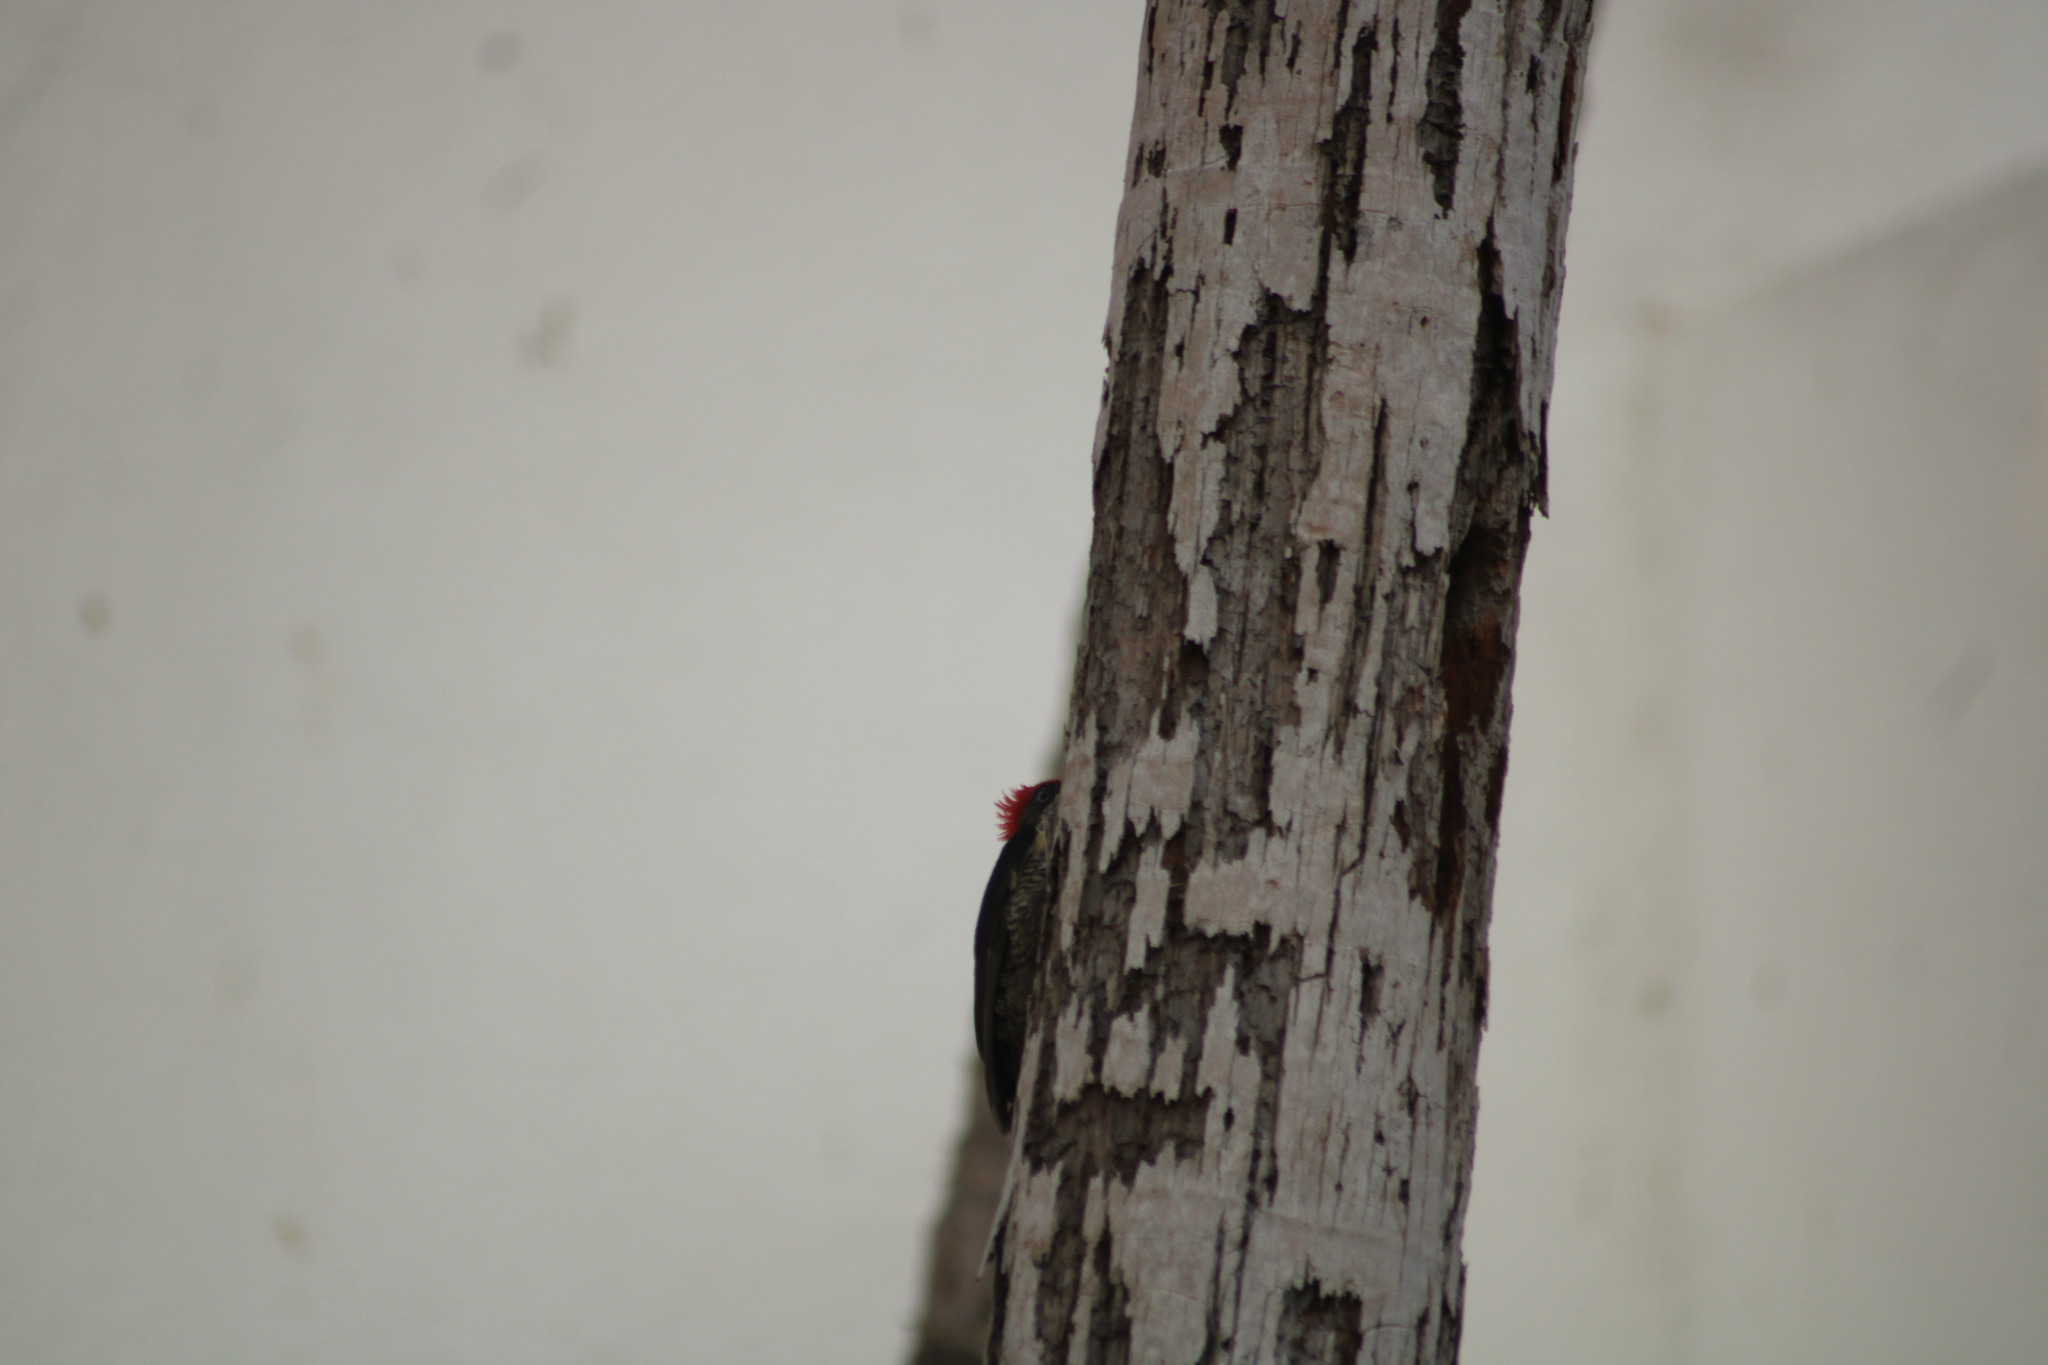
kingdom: Animalia
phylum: Chordata
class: Aves
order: Piciformes
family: Picidae
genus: Dryocopus
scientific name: Dryocopus lineatus
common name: Lineated woodpecker
